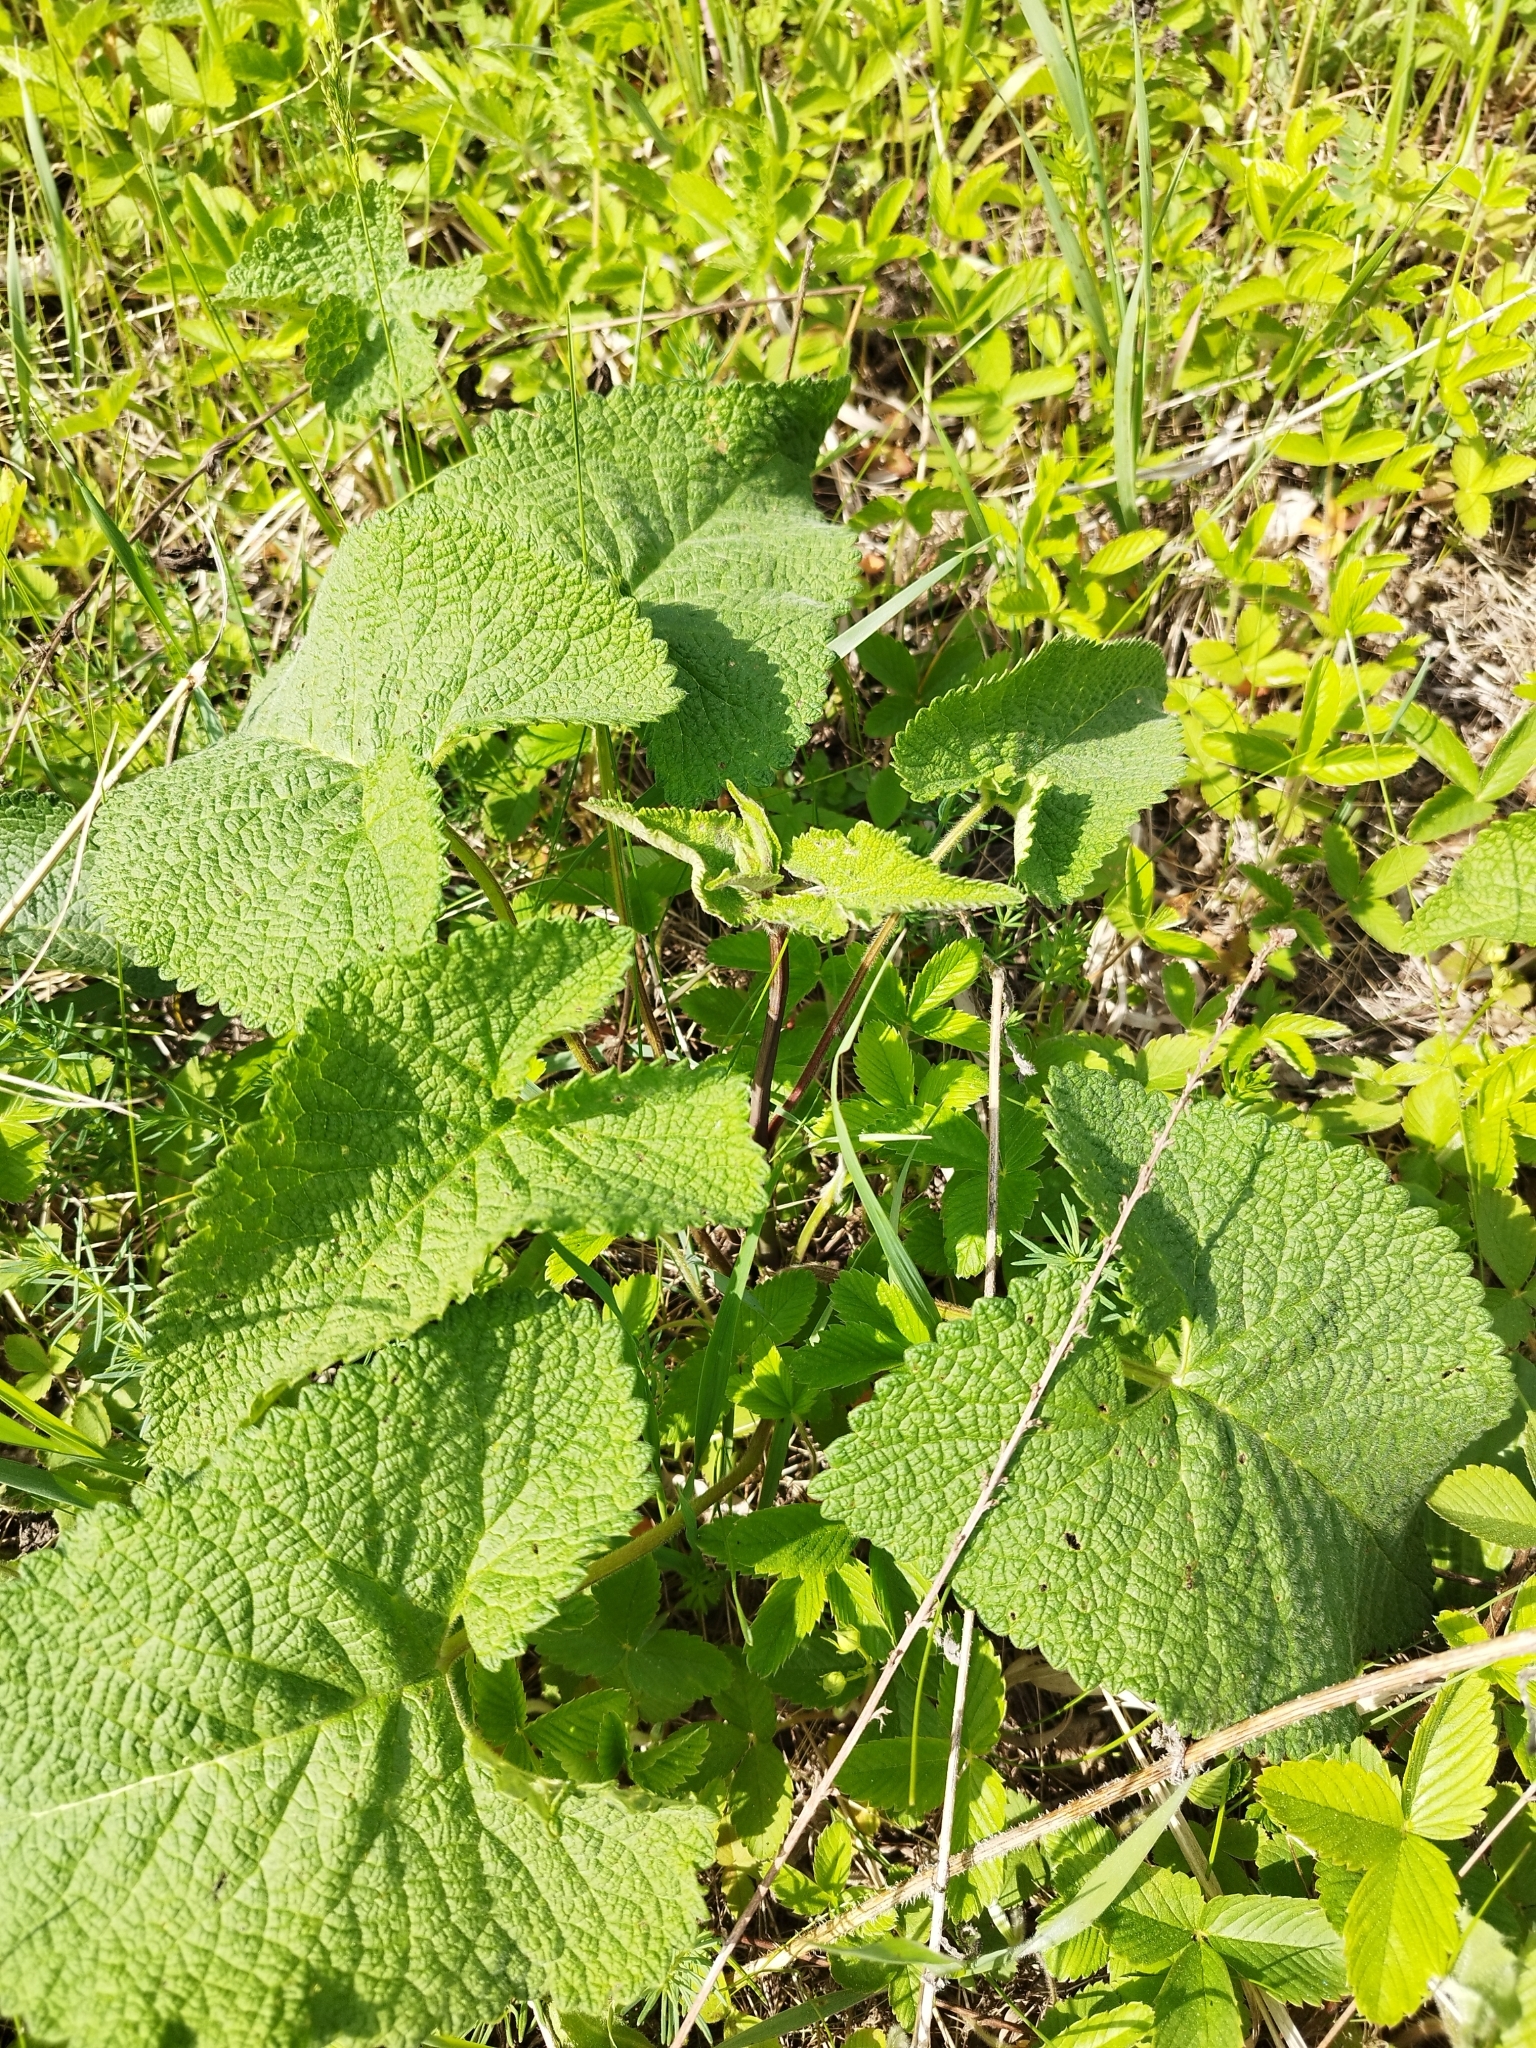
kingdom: Plantae
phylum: Tracheophyta
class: Magnoliopsida
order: Lamiales
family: Lamiaceae
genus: Phlomoides
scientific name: Phlomoides tuberosa
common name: Tuberous jerusalem sage
